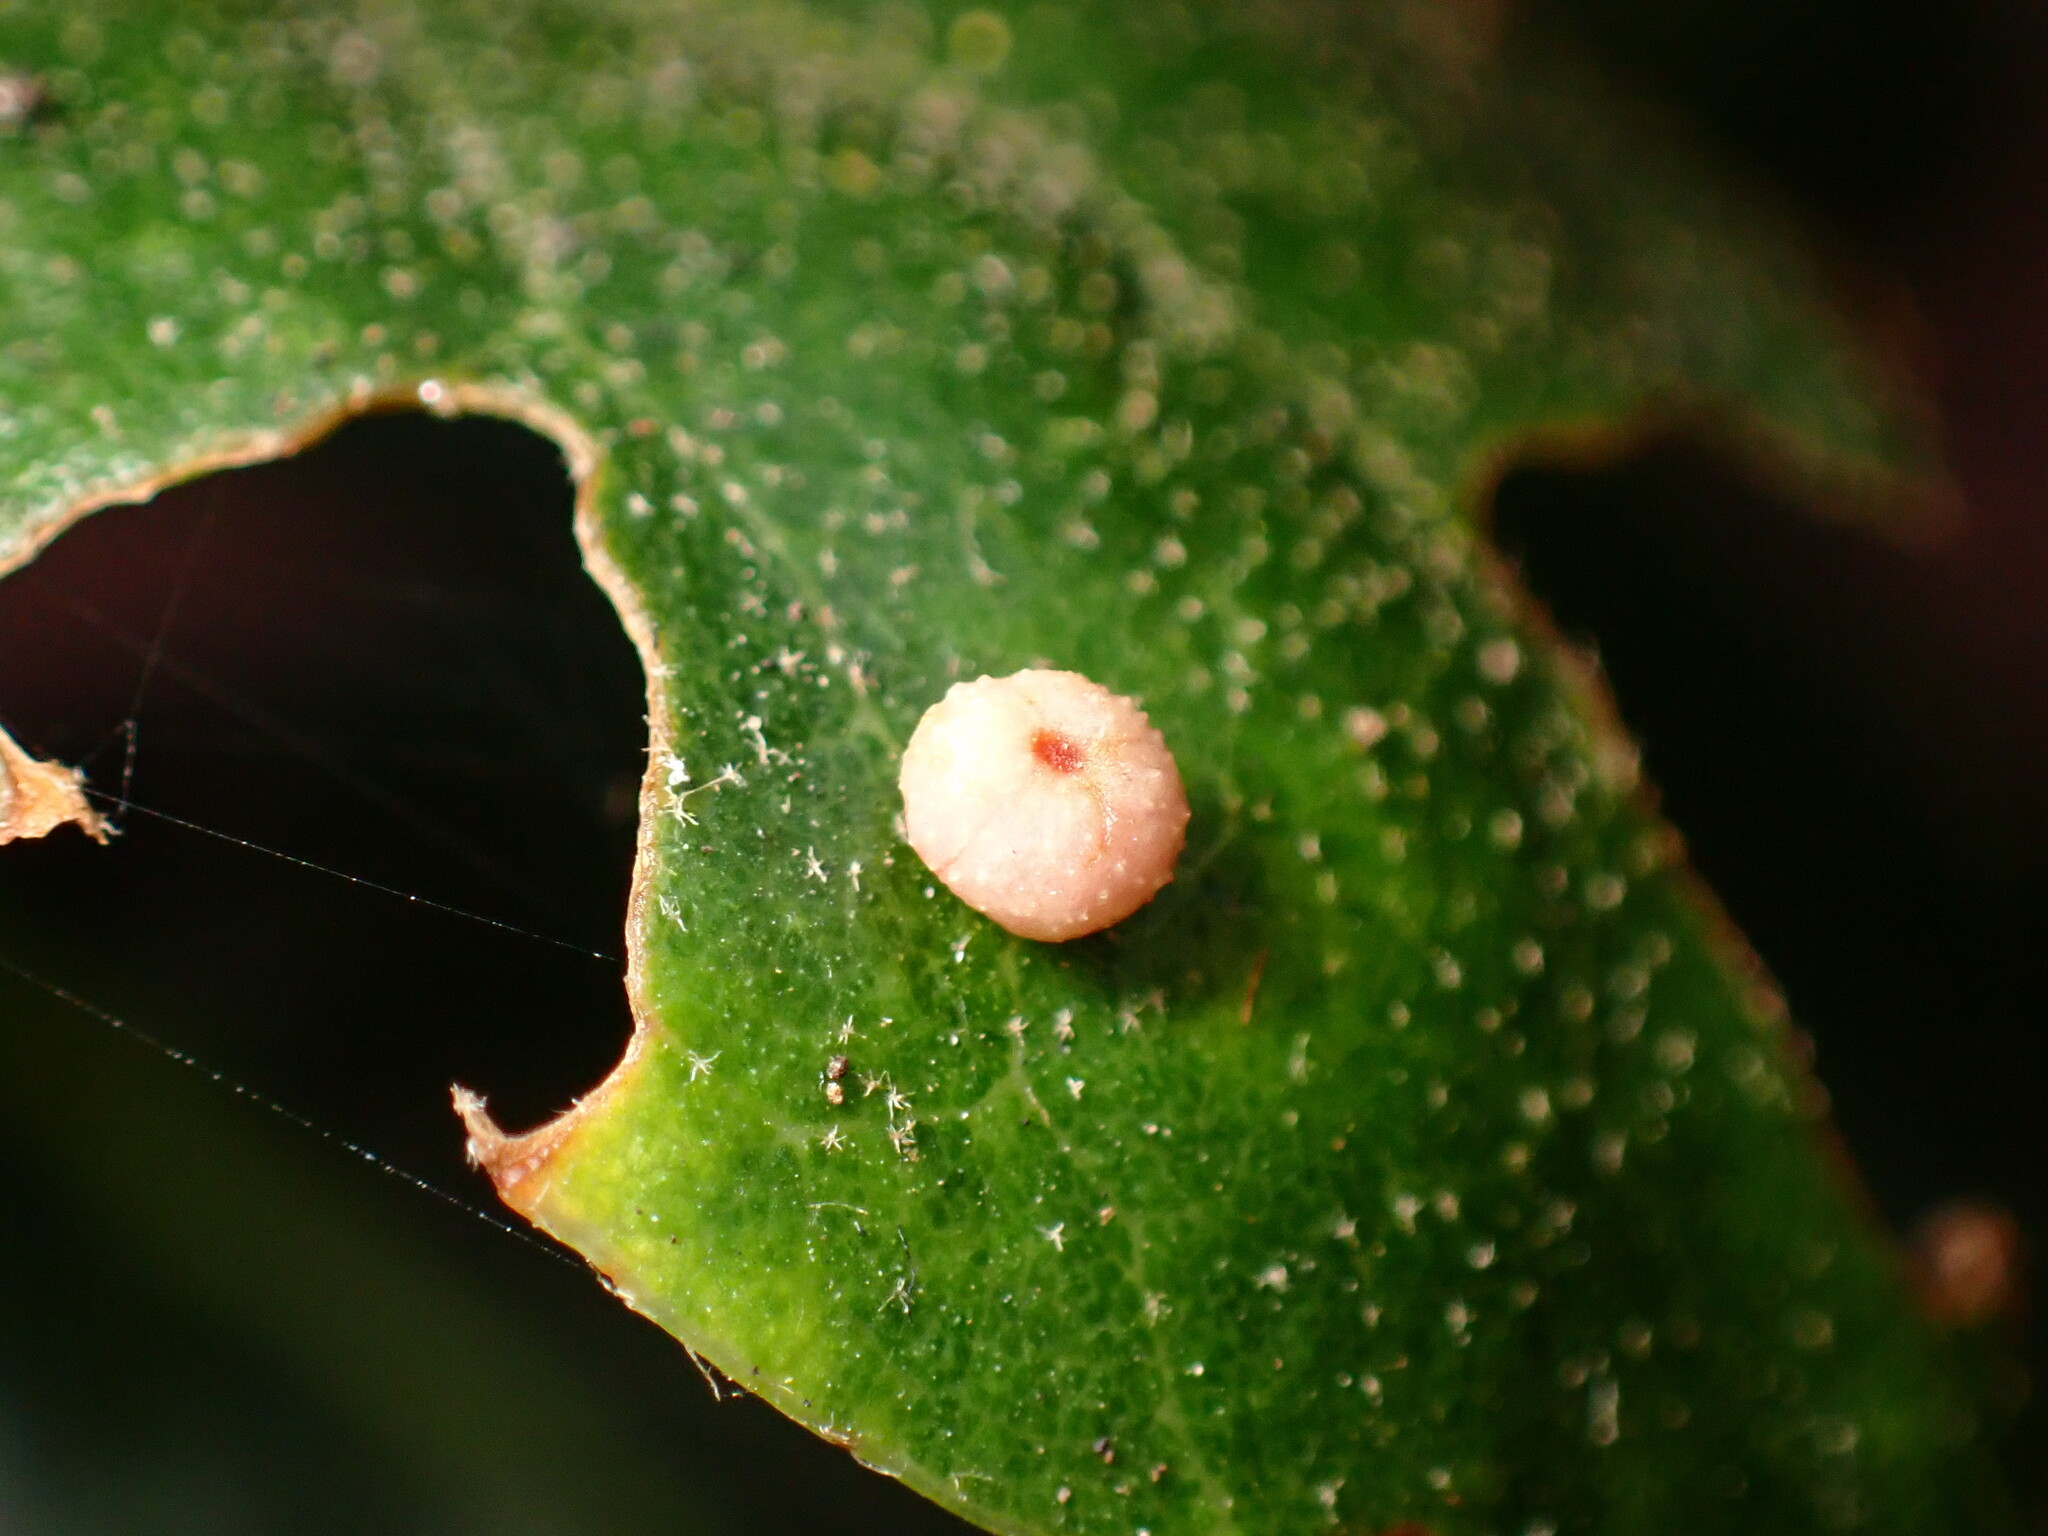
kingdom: Animalia
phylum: Arthropoda
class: Insecta
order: Hymenoptera
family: Cynipidae
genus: Dryocosmus
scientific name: Dryocosmus
